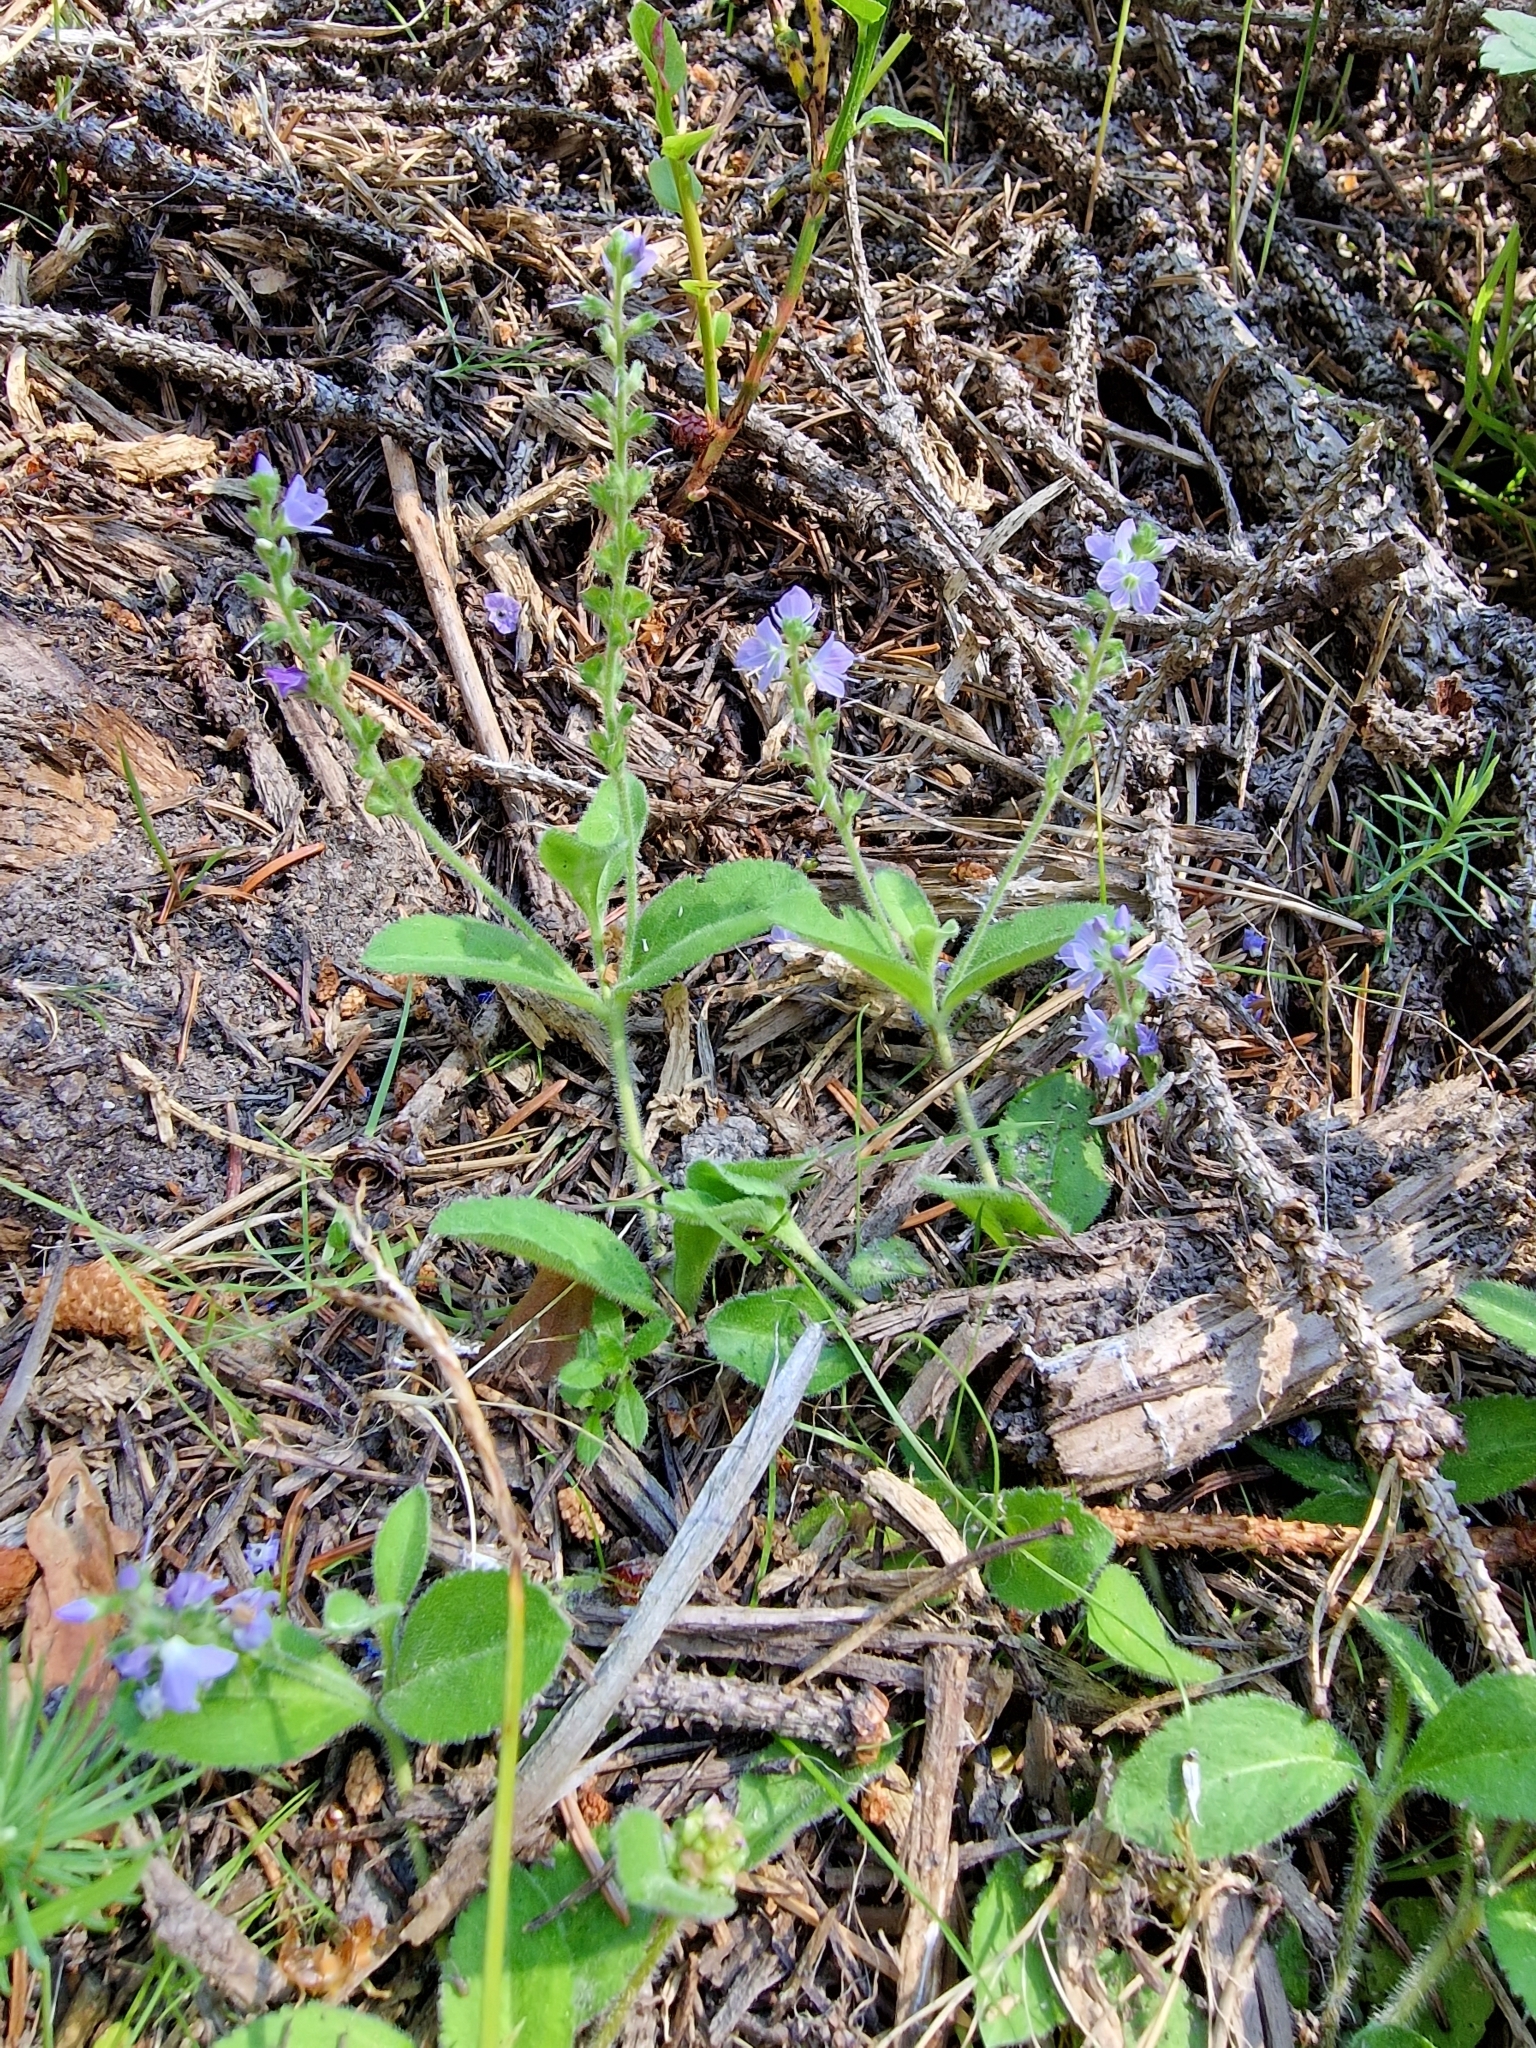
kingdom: Plantae
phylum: Tracheophyta
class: Magnoliopsida
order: Lamiales
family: Plantaginaceae
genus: Veronica
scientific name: Veronica officinalis
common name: Common speedwell
